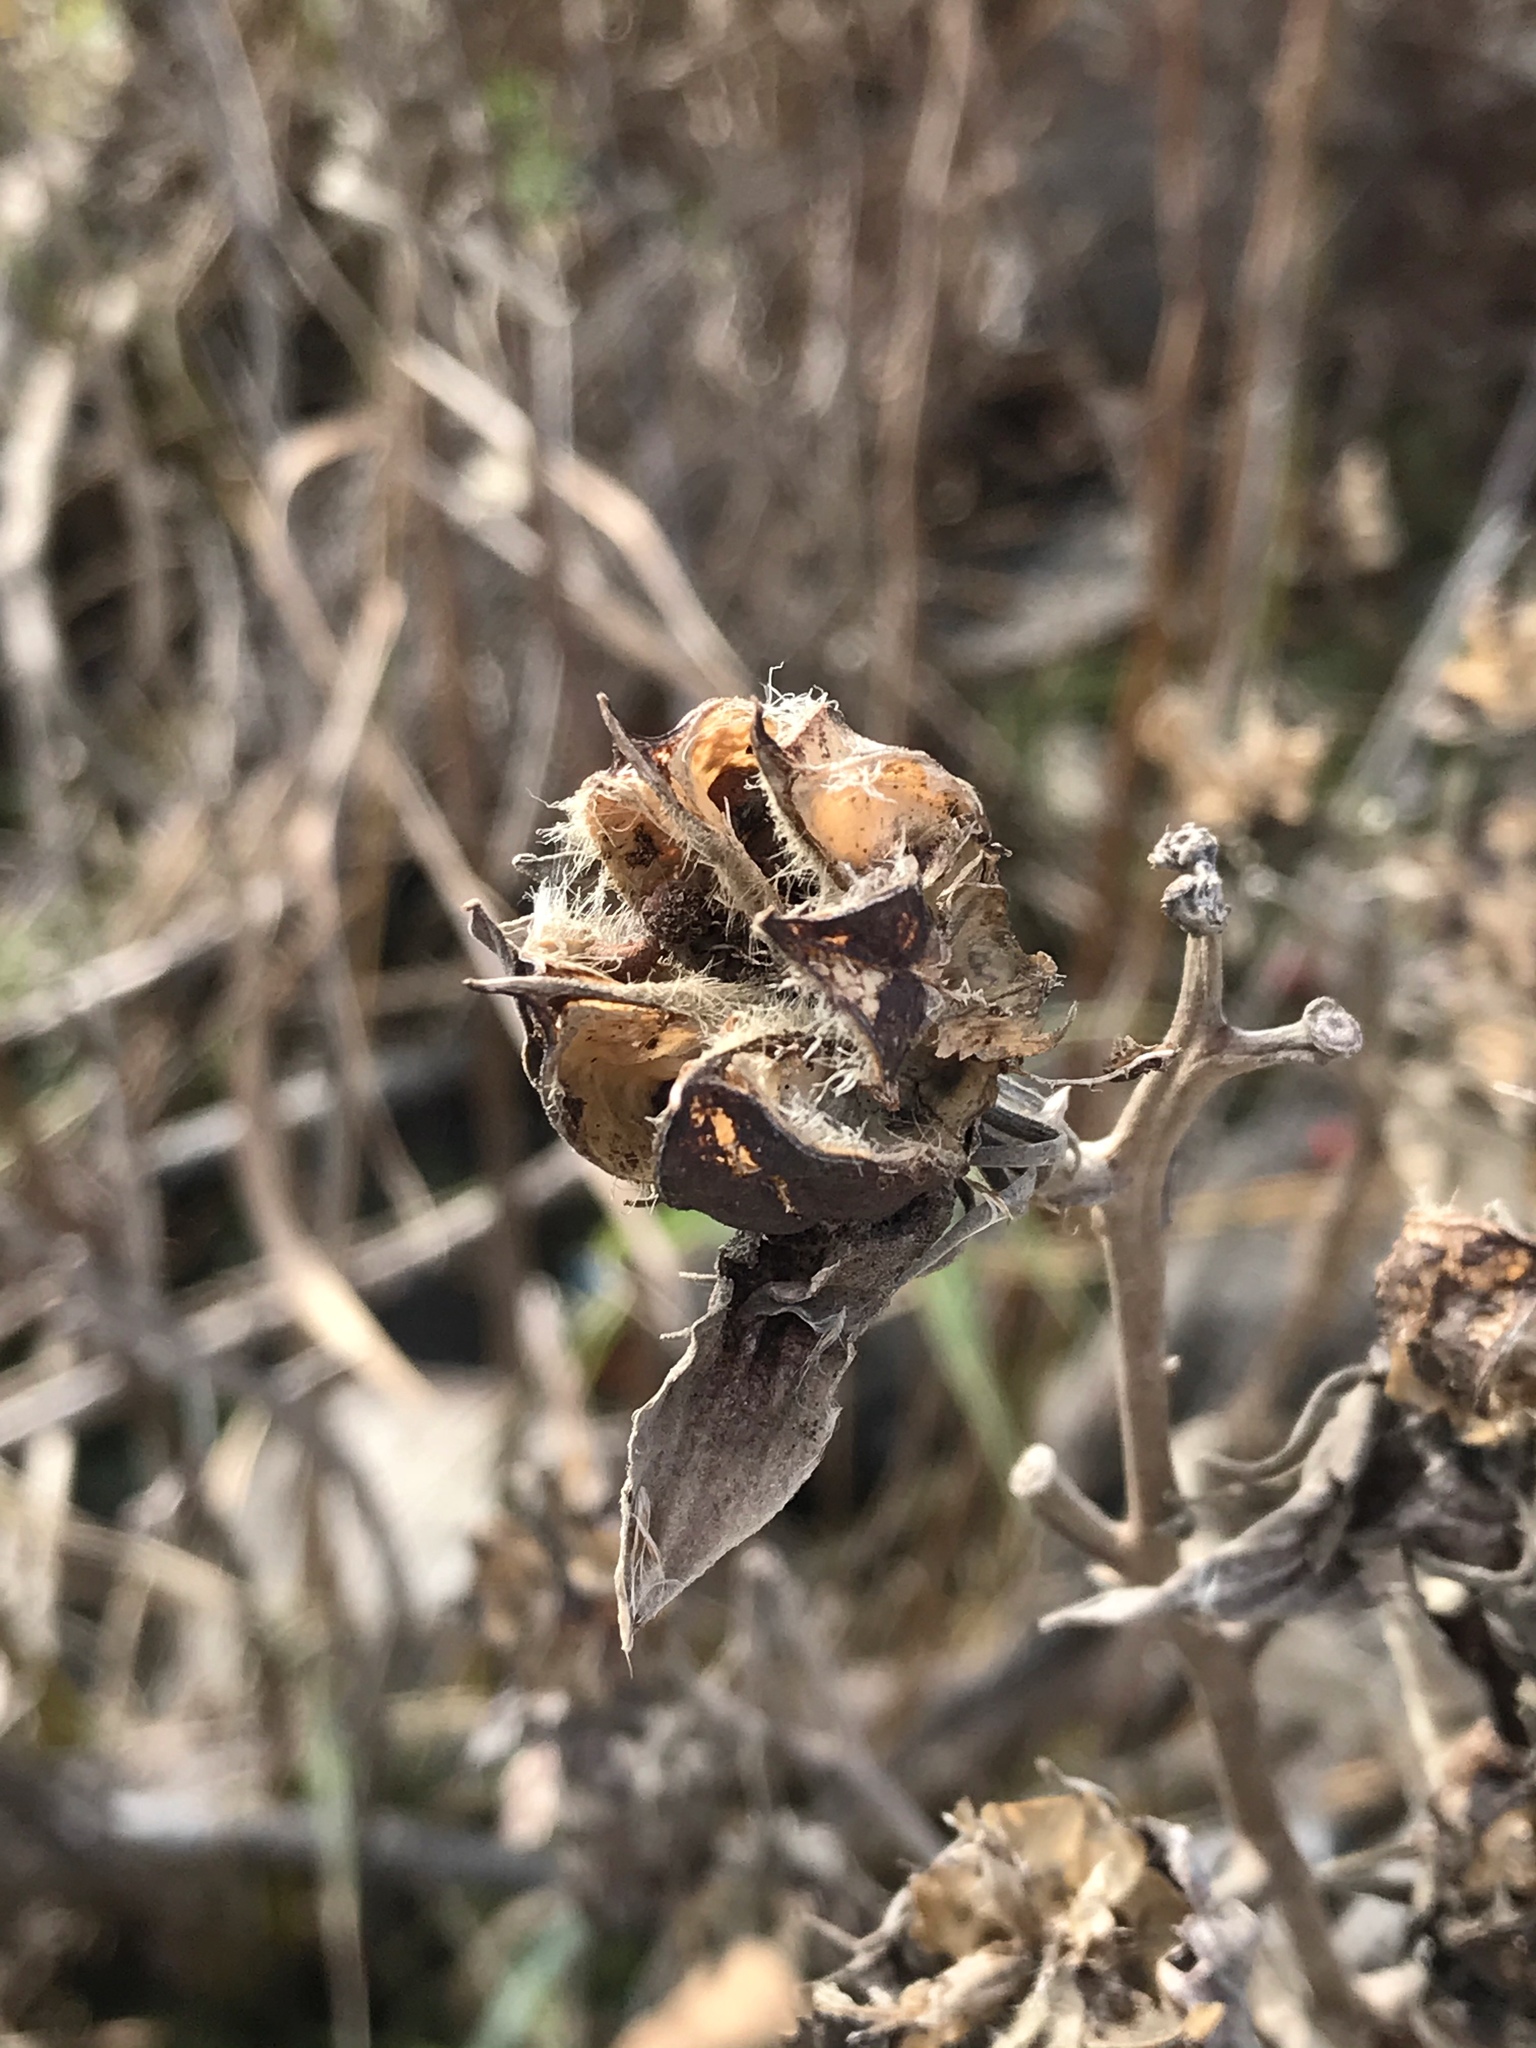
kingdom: Plantae
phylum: Tracheophyta
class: Magnoliopsida
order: Malvales
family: Malvaceae
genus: Hibiscus
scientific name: Hibiscus moscheutos
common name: Common rose-mallow
